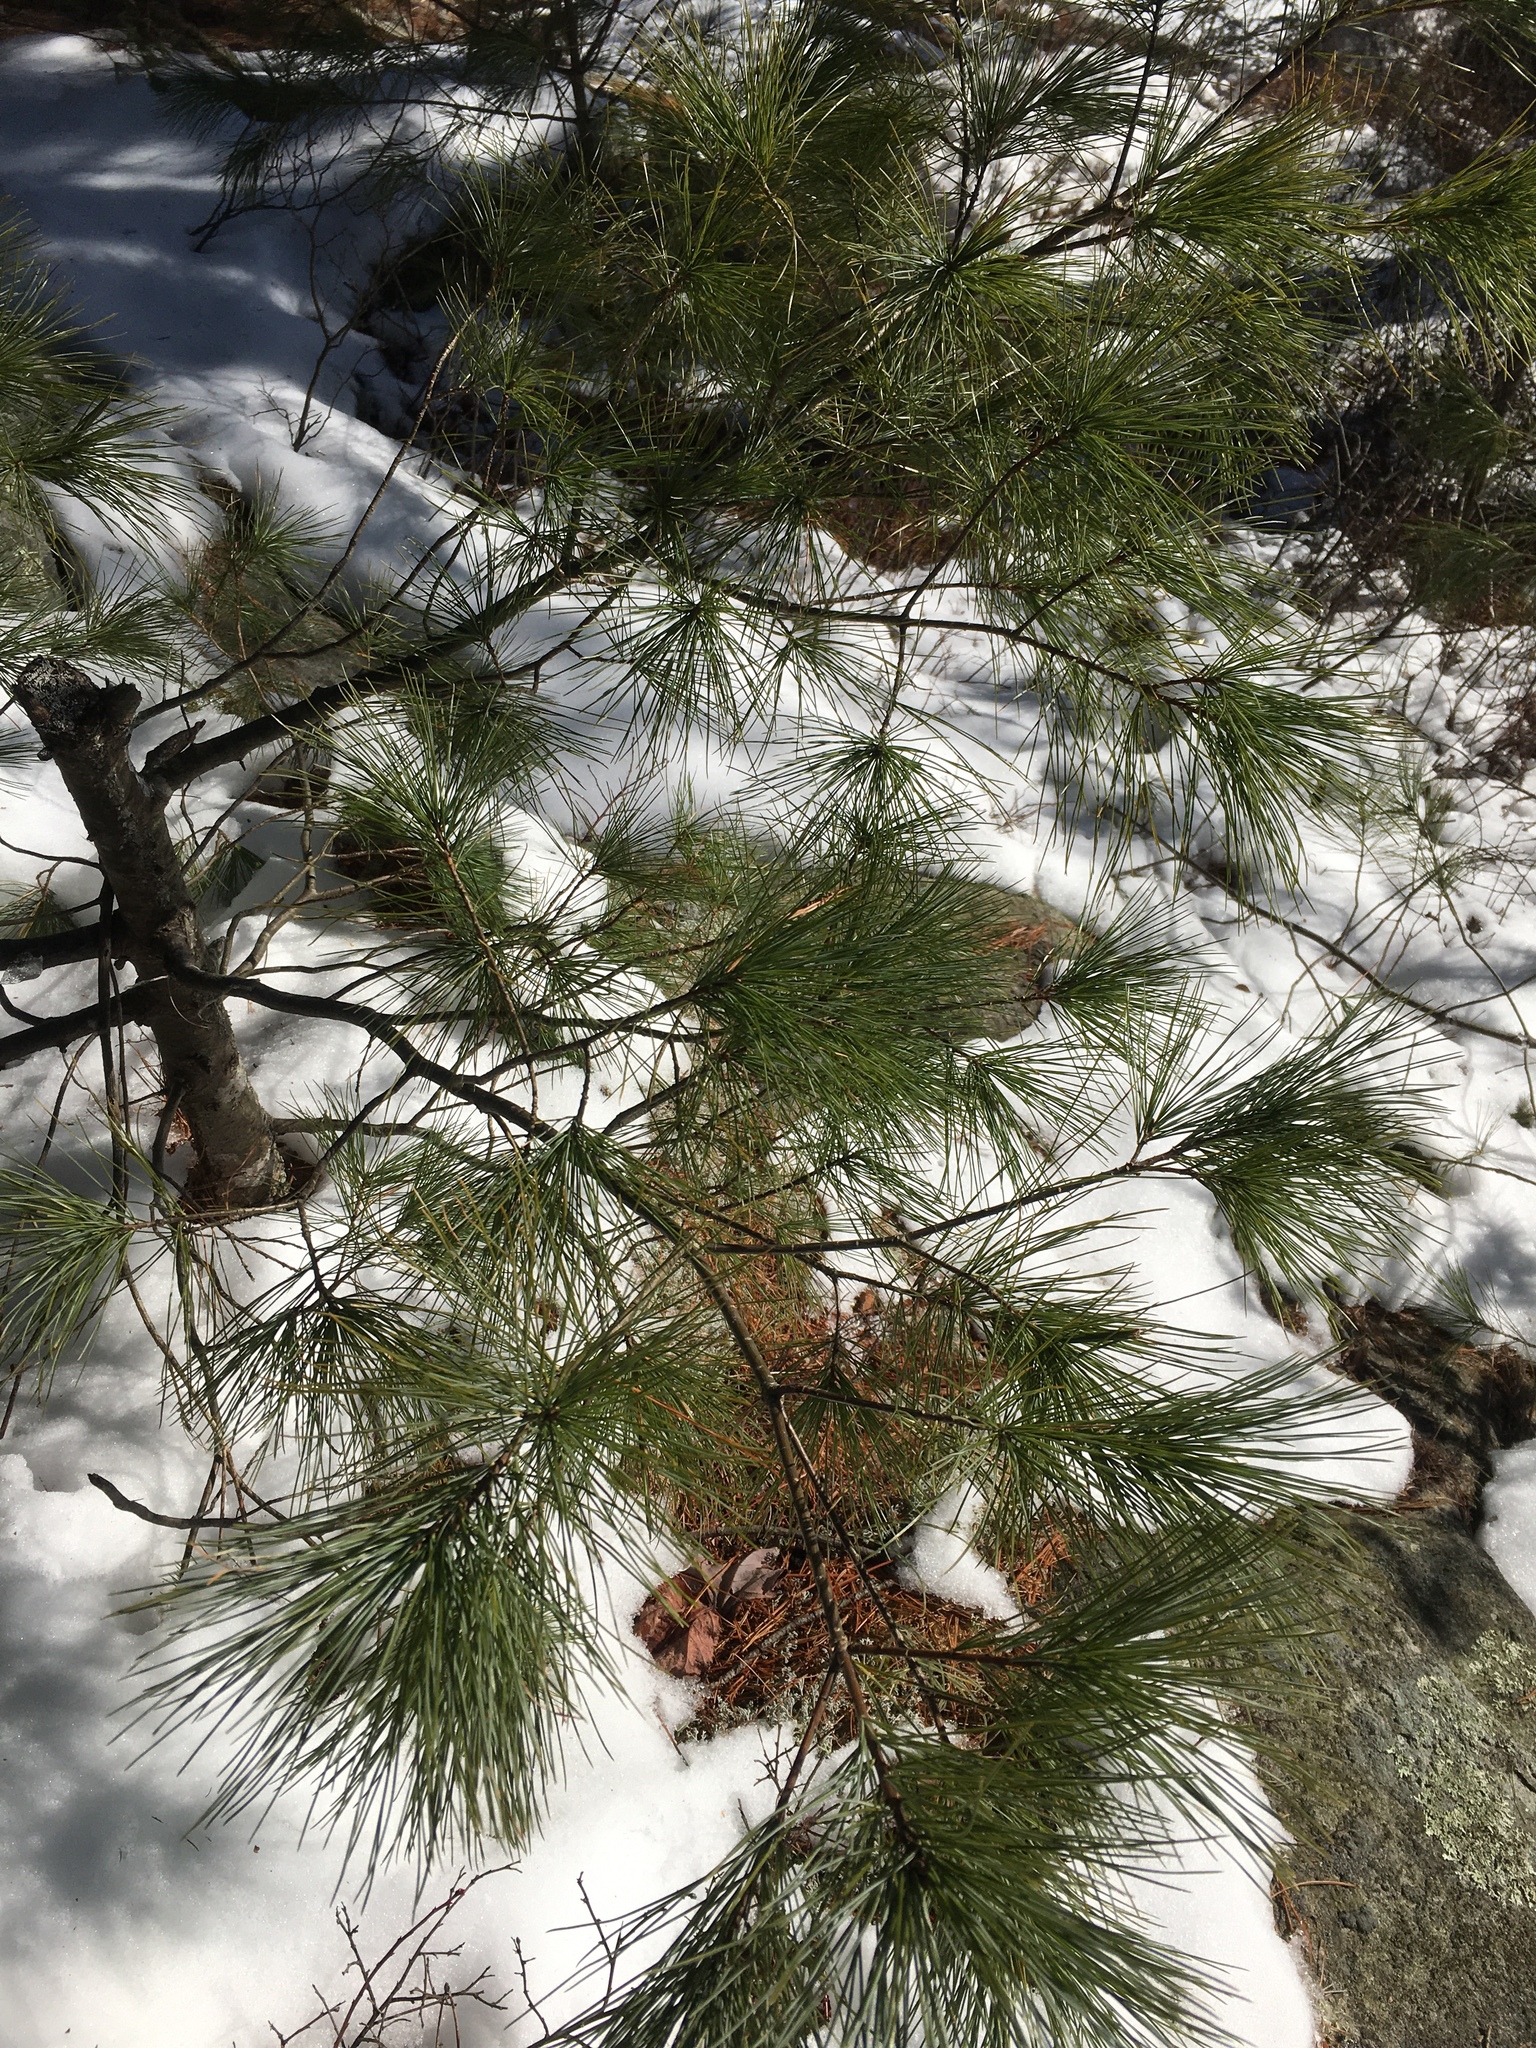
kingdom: Plantae
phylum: Tracheophyta
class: Pinopsida
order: Pinales
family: Pinaceae
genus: Pinus
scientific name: Pinus strobus
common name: Weymouth pine
